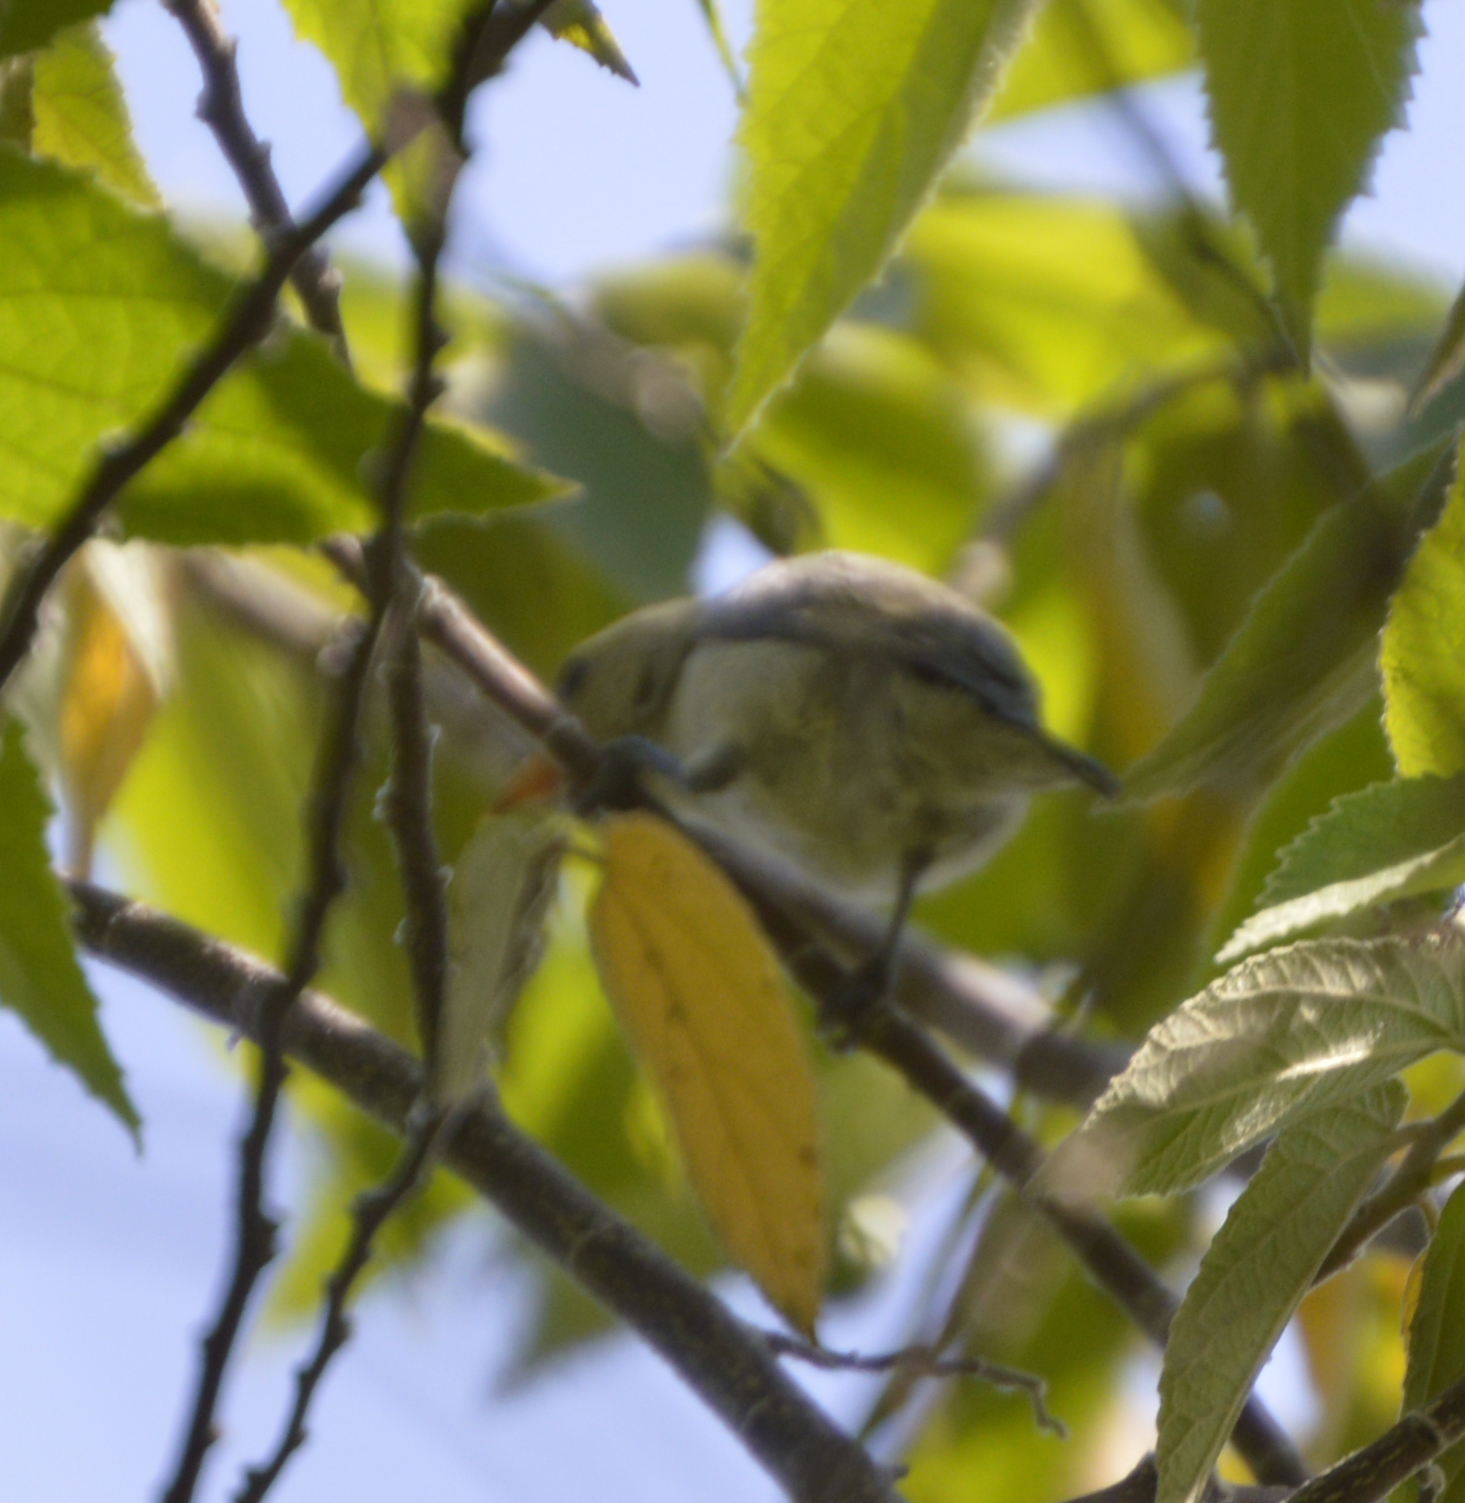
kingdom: Animalia
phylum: Chordata
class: Aves
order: Passeriformes
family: Dicaeidae
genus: Dicaeum
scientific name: Dicaeum erythrorhynchos
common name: Pale-billed flowerpecker
